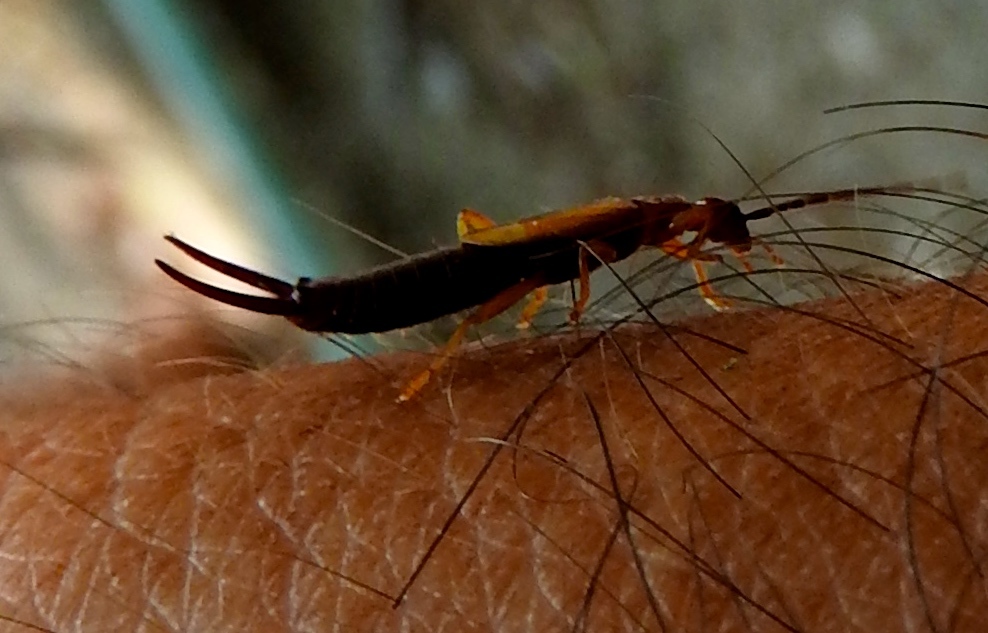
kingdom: Animalia
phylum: Arthropoda
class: Insecta
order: Dermaptera
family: Forficulidae
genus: Doru
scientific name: Doru
